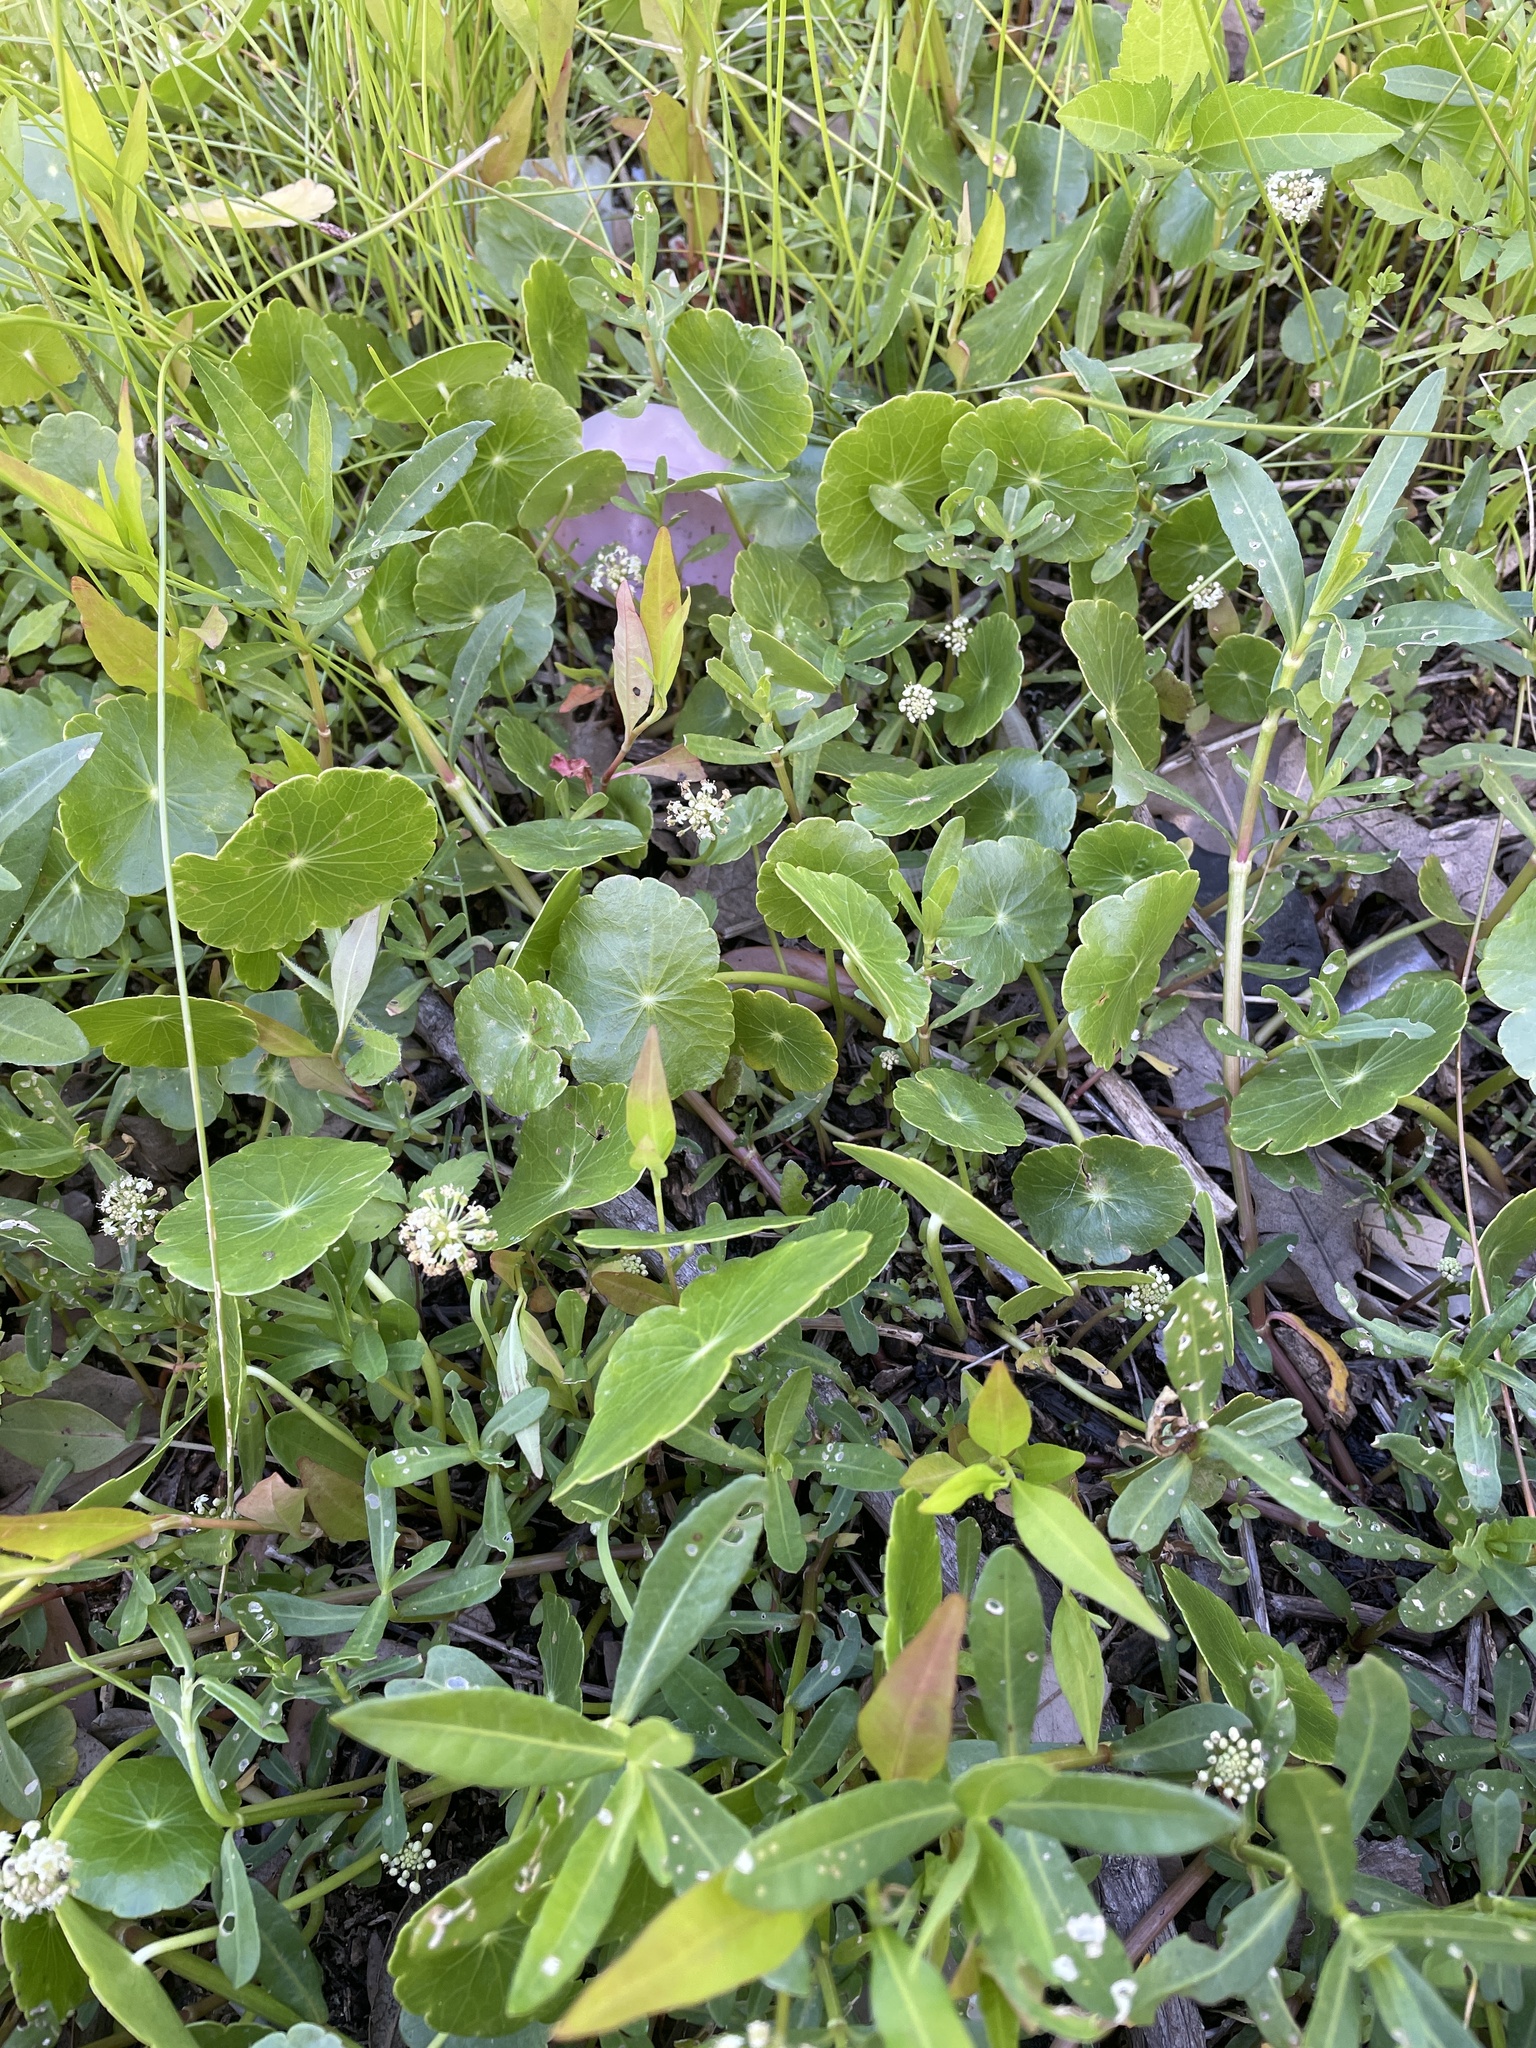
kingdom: Plantae
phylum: Tracheophyta
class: Magnoliopsida
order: Apiales
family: Araliaceae
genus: Hydrocotyle
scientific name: Hydrocotyle umbellata
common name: Water pennywort
